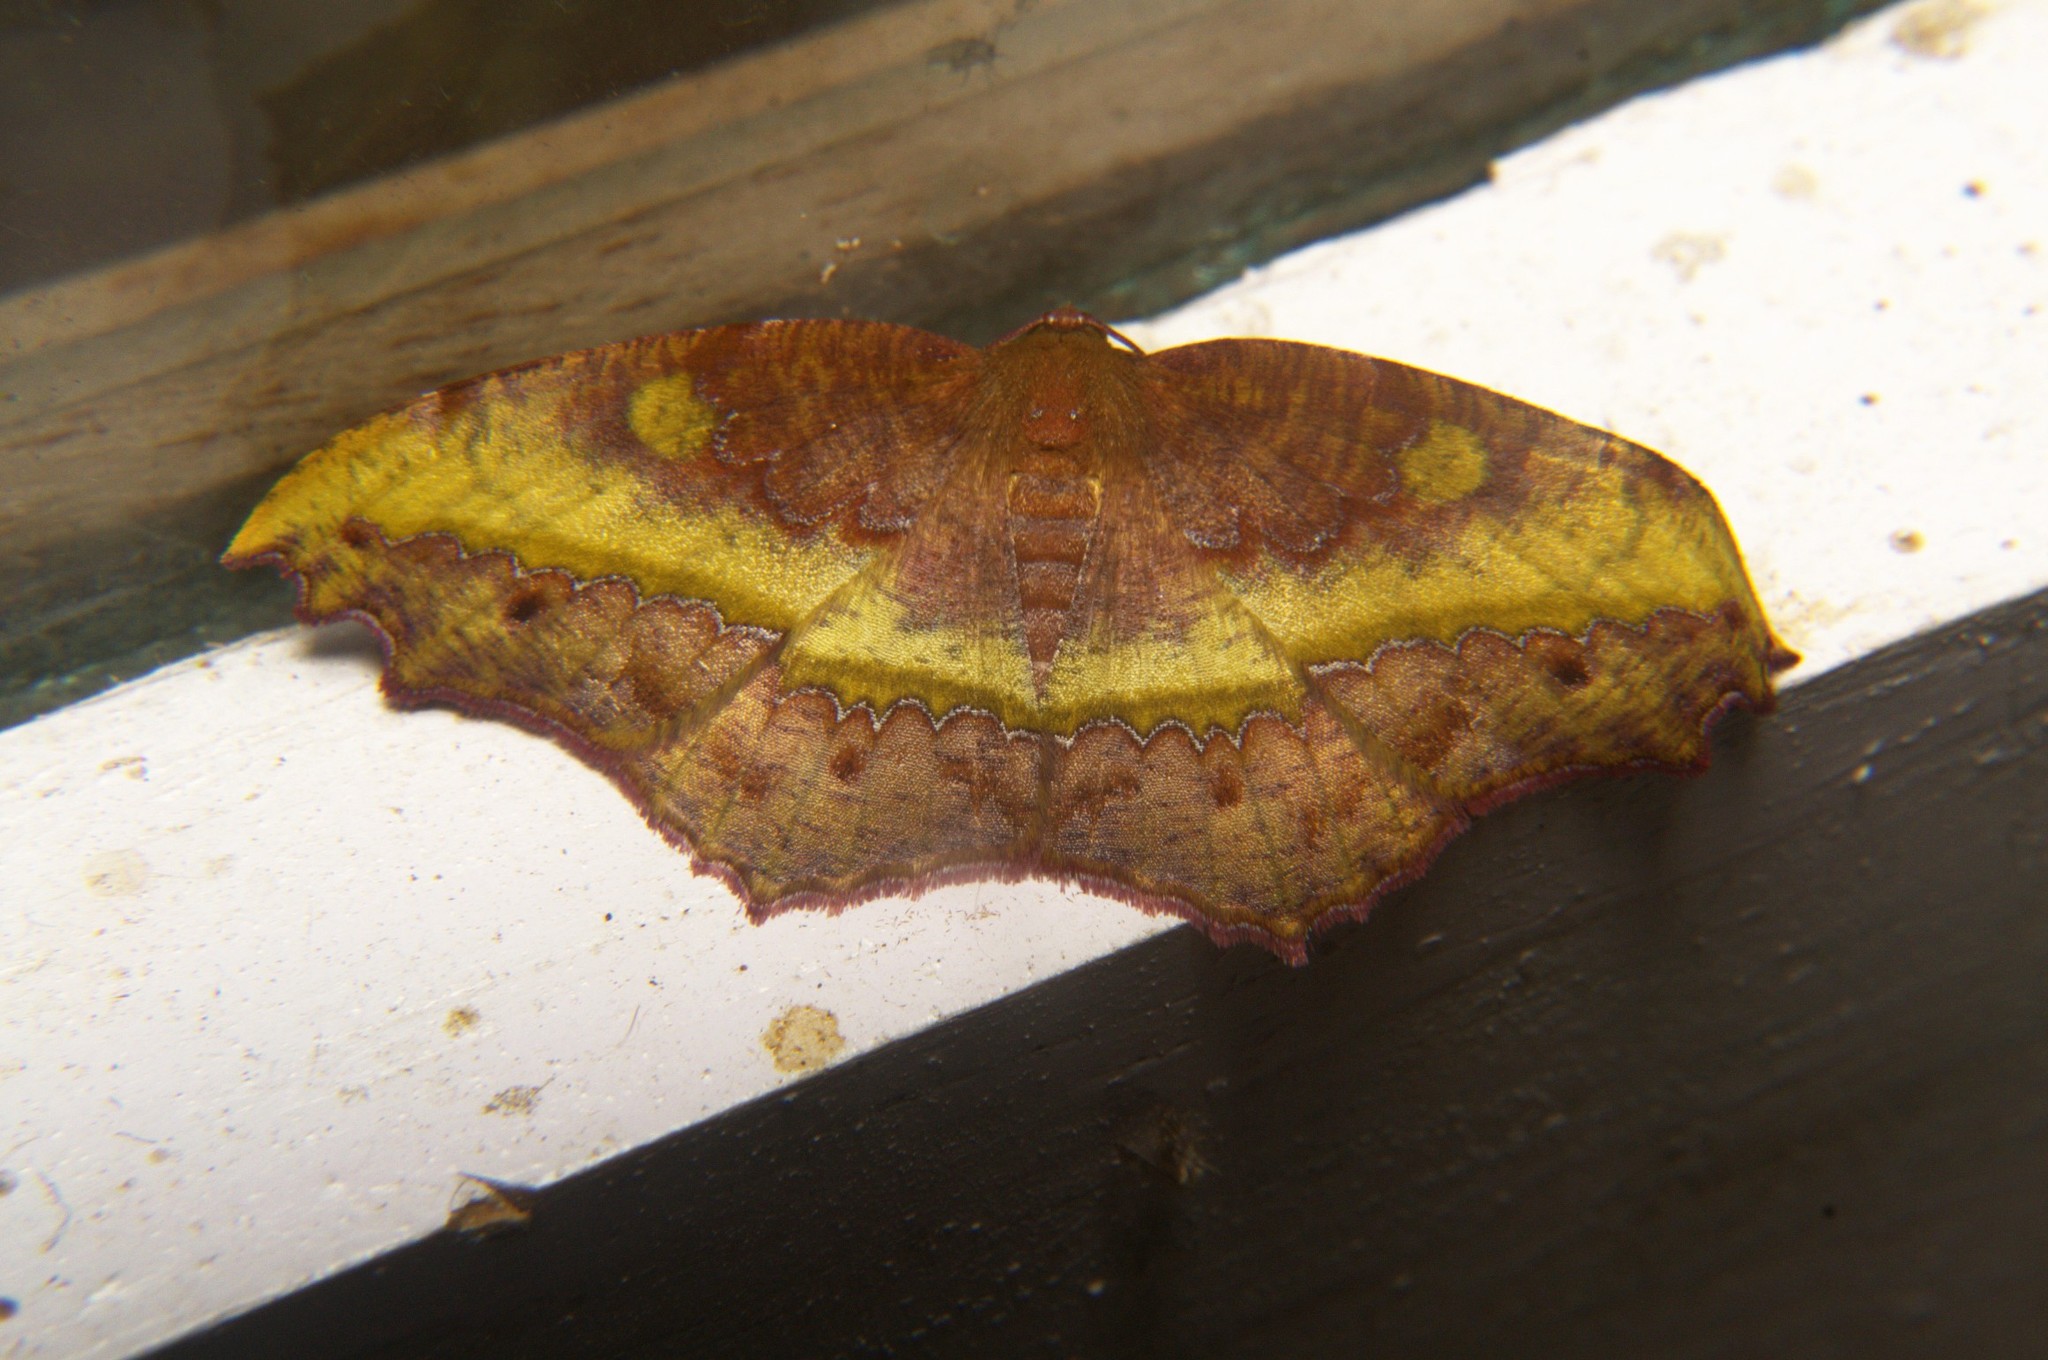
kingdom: Animalia
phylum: Arthropoda
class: Insecta
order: Lepidoptera
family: Geometridae
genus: Leptomiza
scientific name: Leptomiza calcearia
